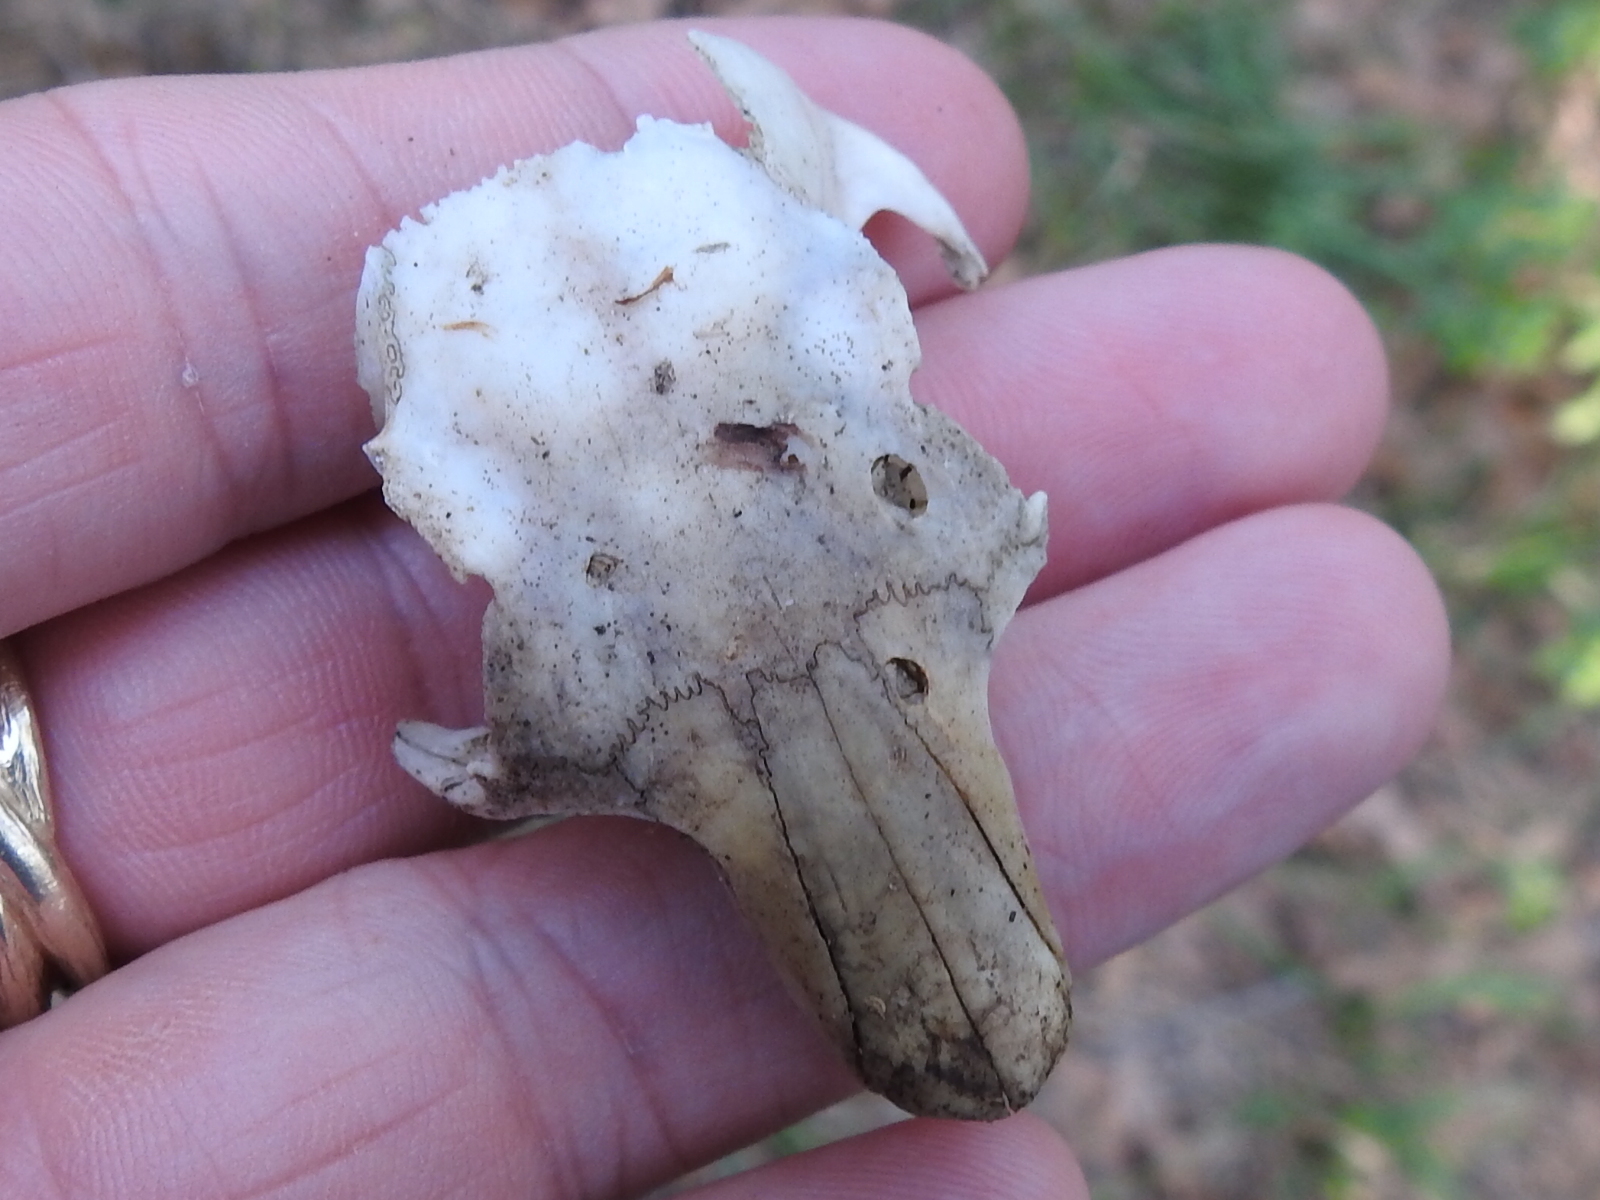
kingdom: Animalia
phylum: Chordata
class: Mammalia
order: Rodentia
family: Sciuridae
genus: Sciurus
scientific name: Sciurus niger
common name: Fox squirrel
